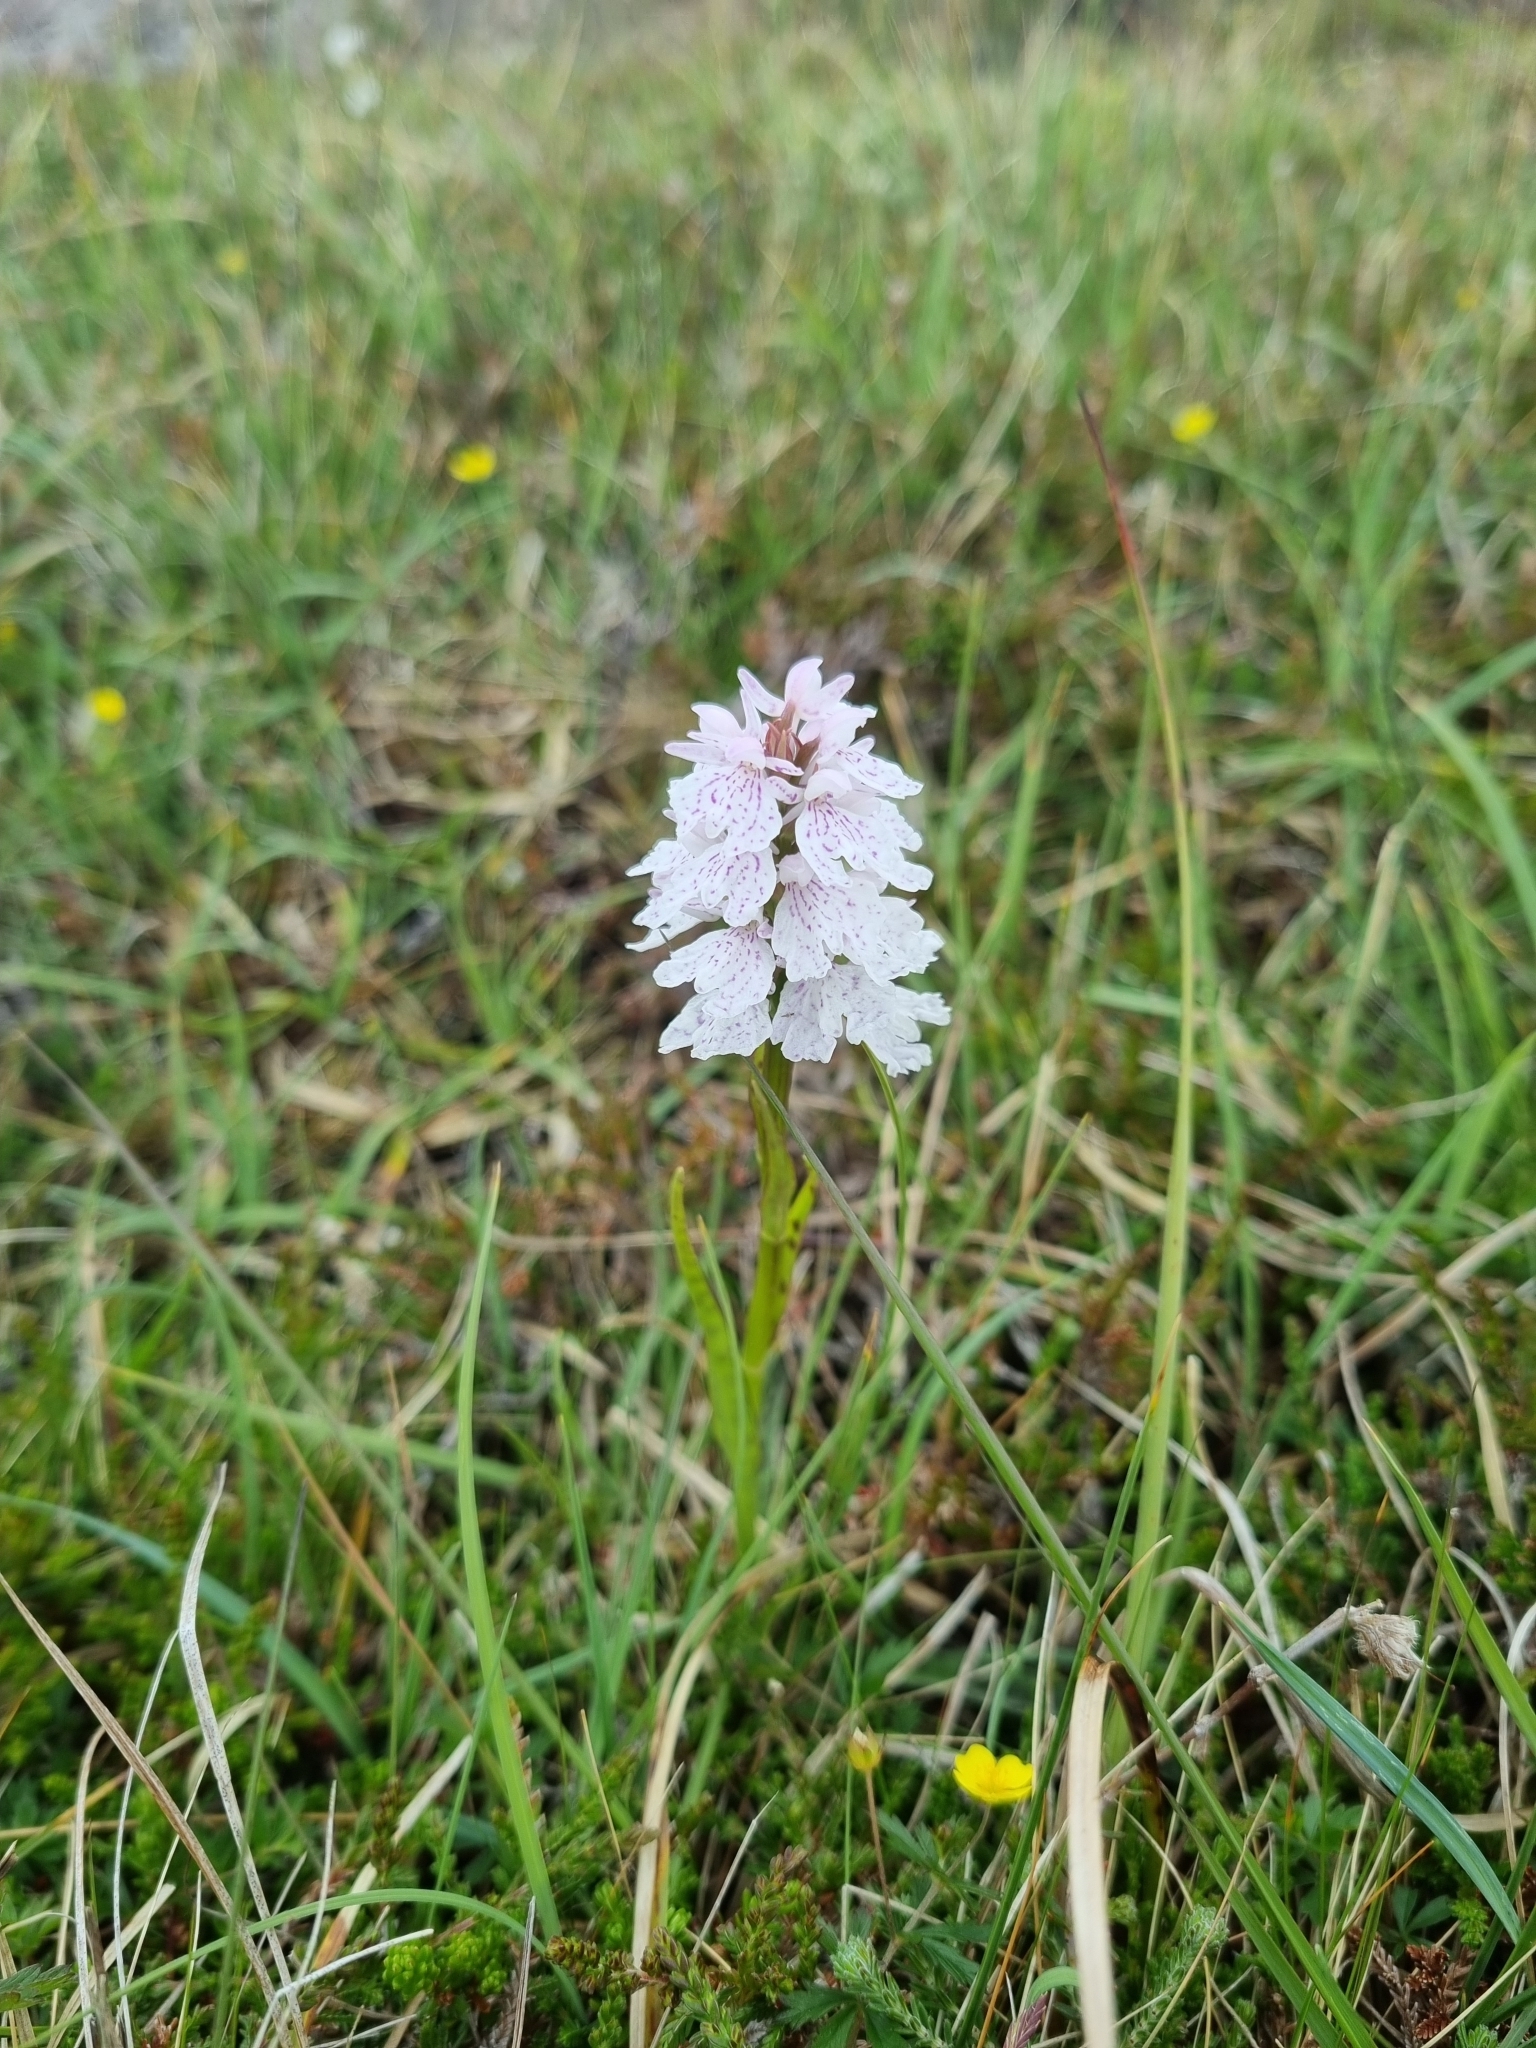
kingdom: Plantae
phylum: Tracheophyta
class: Liliopsida
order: Asparagales
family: Orchidaceae
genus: Dactylorhiza
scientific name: Dactylorhiza maculata
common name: Heath spotted-orchid
